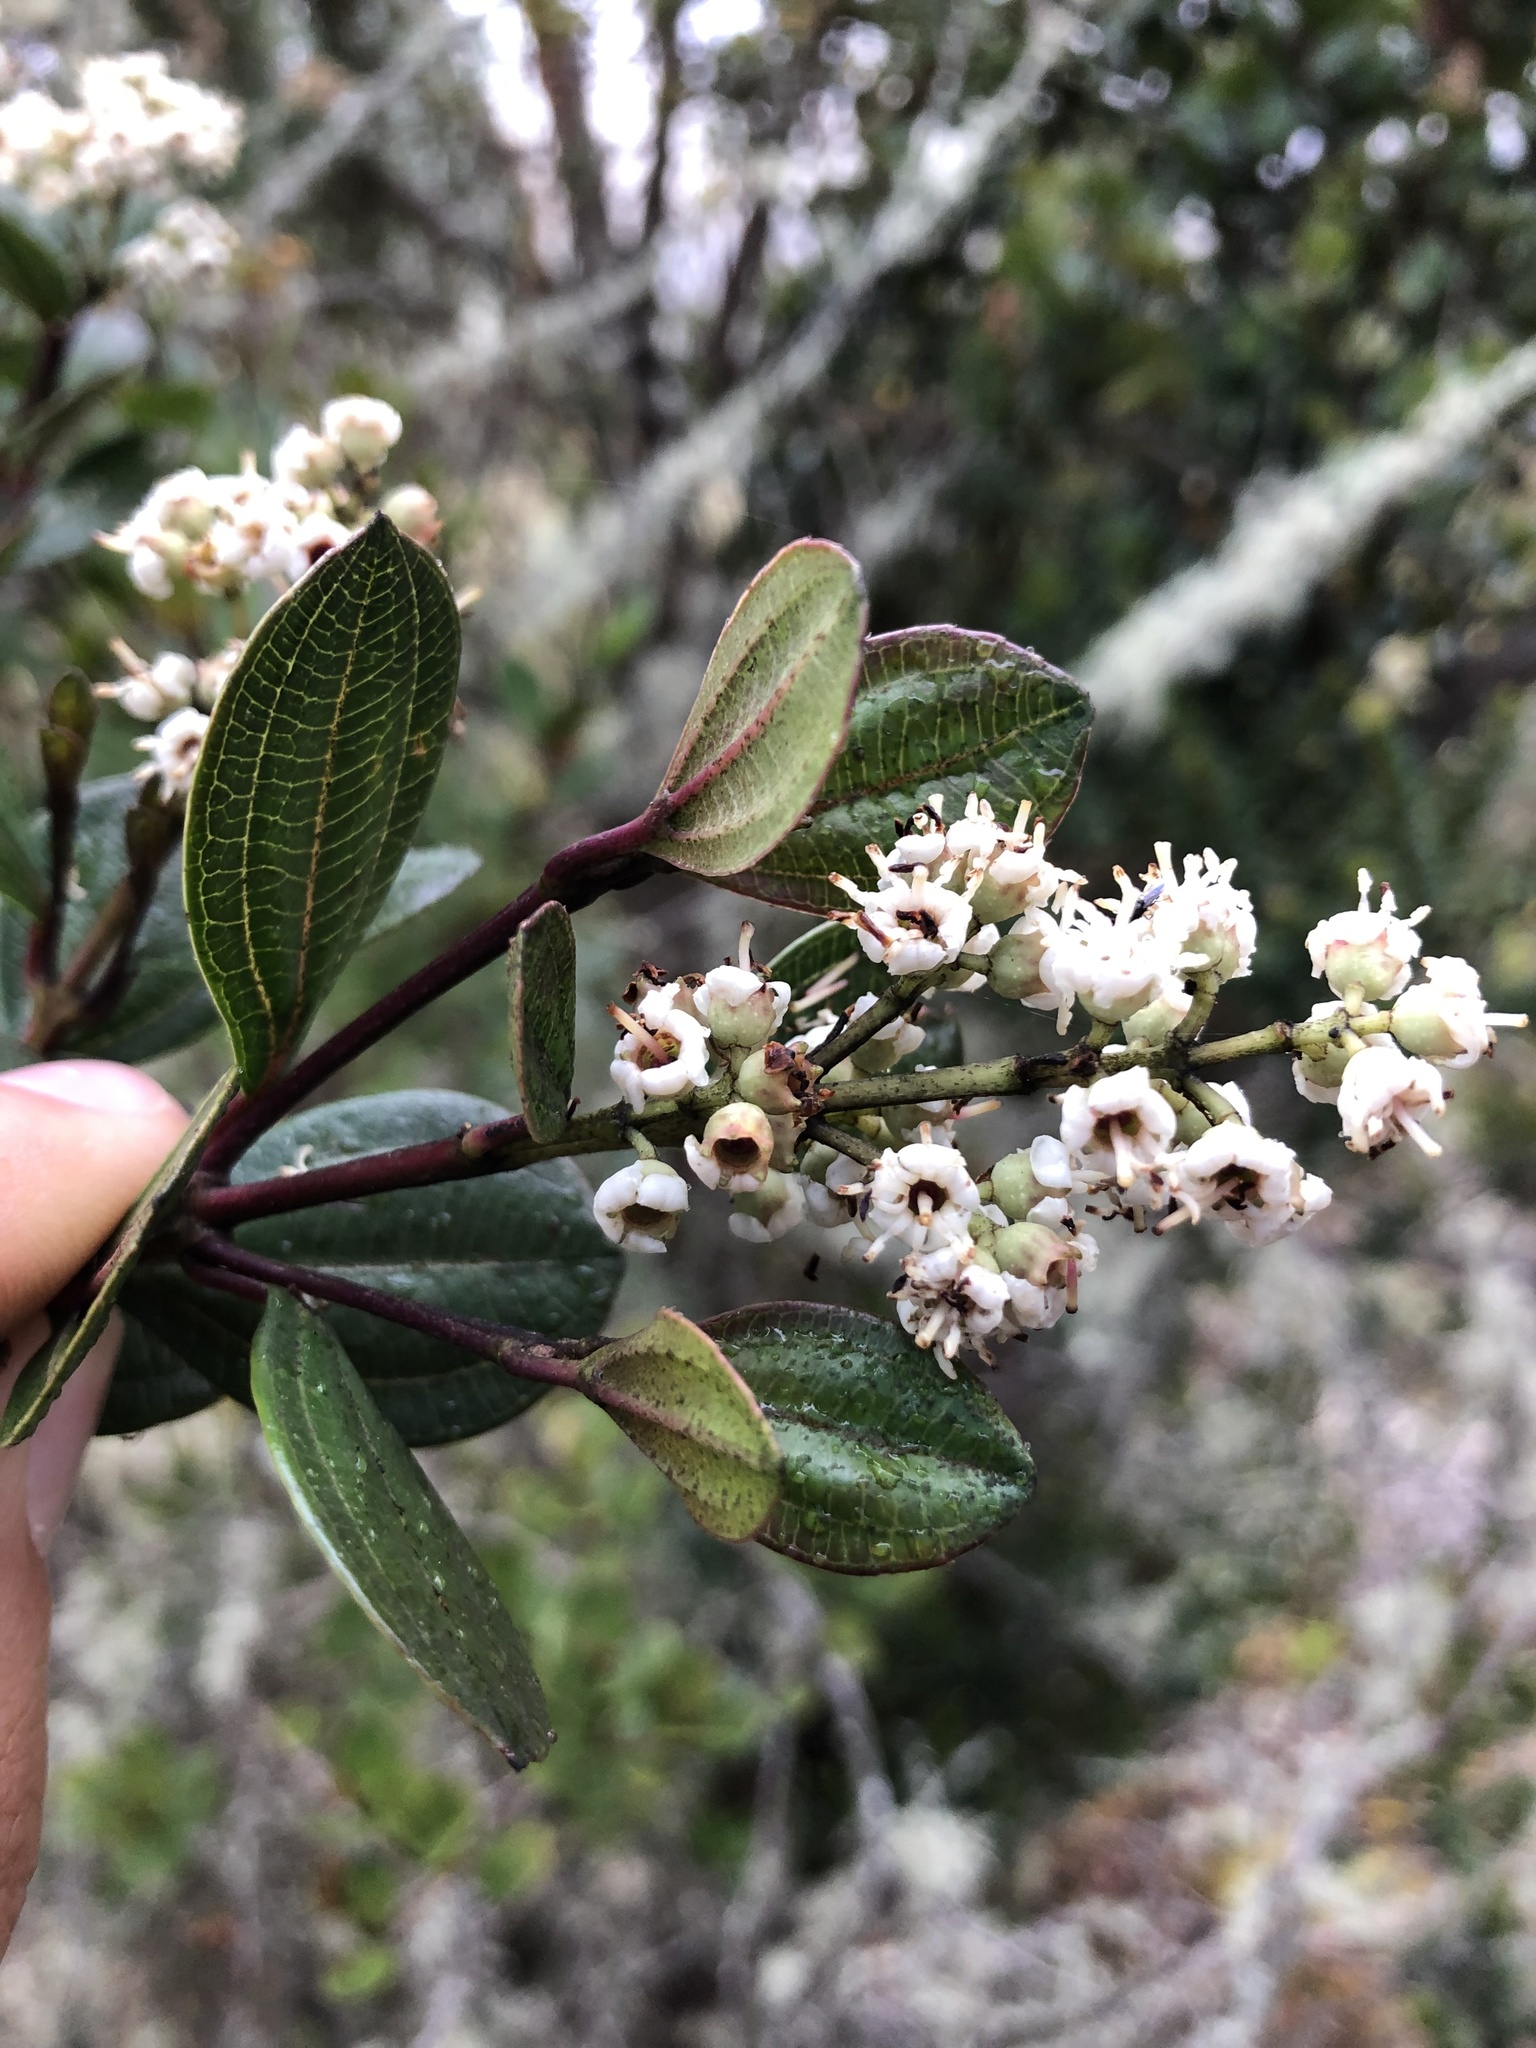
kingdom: Plantae
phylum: Tracheophyta
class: Magnoliopsida
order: Myrtales
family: Melastomataceae
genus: Miconia
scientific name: Miconia ligustrina
